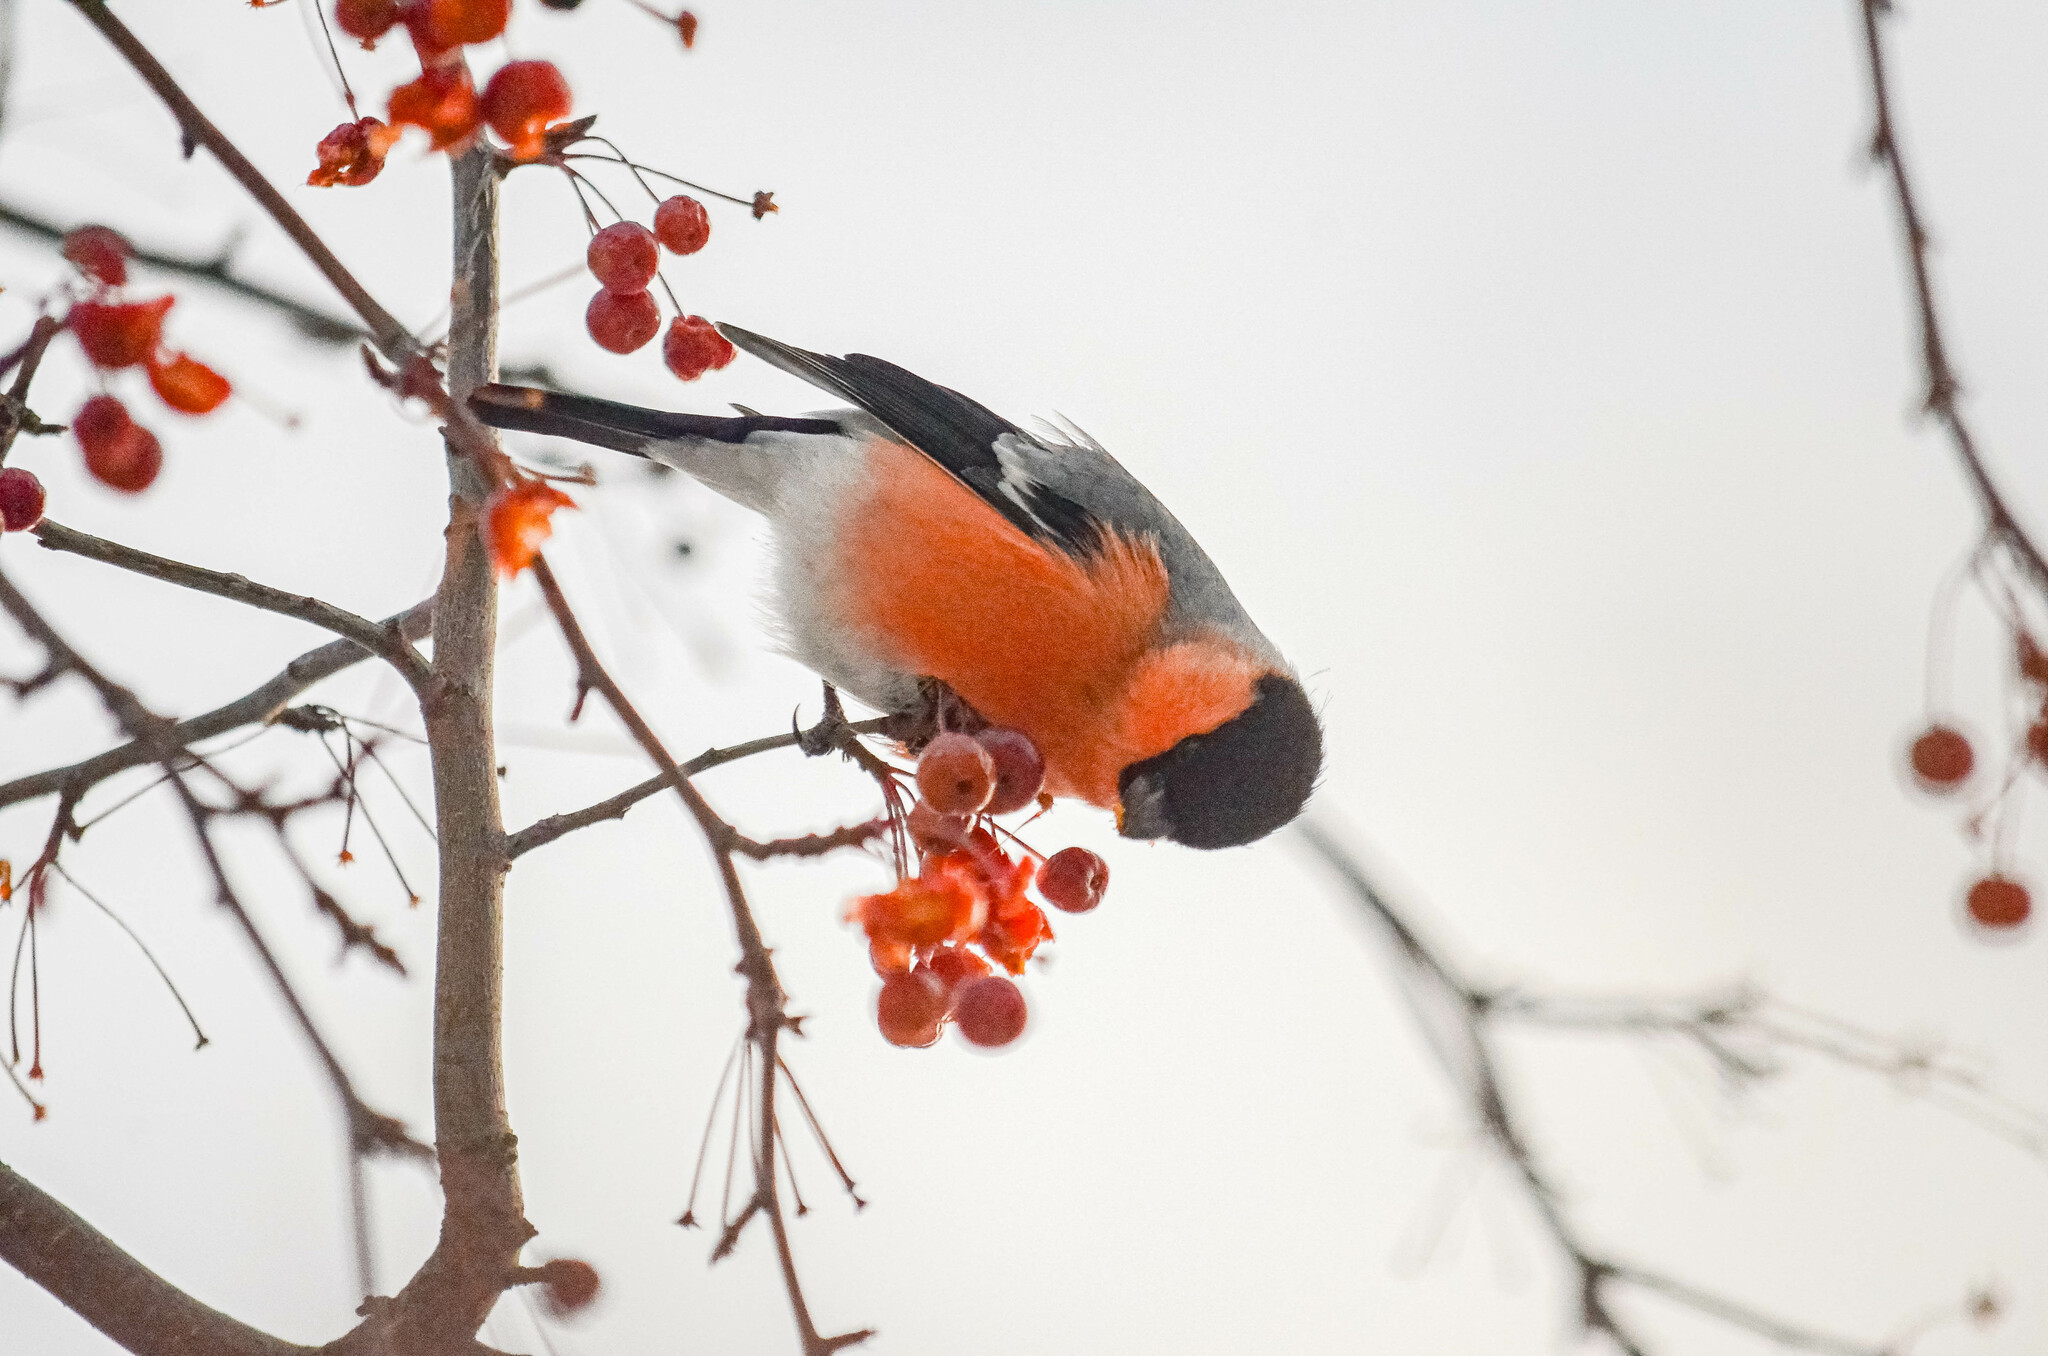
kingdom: Animalia
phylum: Chordata
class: Aves
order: Passeriformes
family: Fringillidae
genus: Pyrrhula
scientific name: Pyrrhula pyrrhula
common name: Eurasian bullfinch
